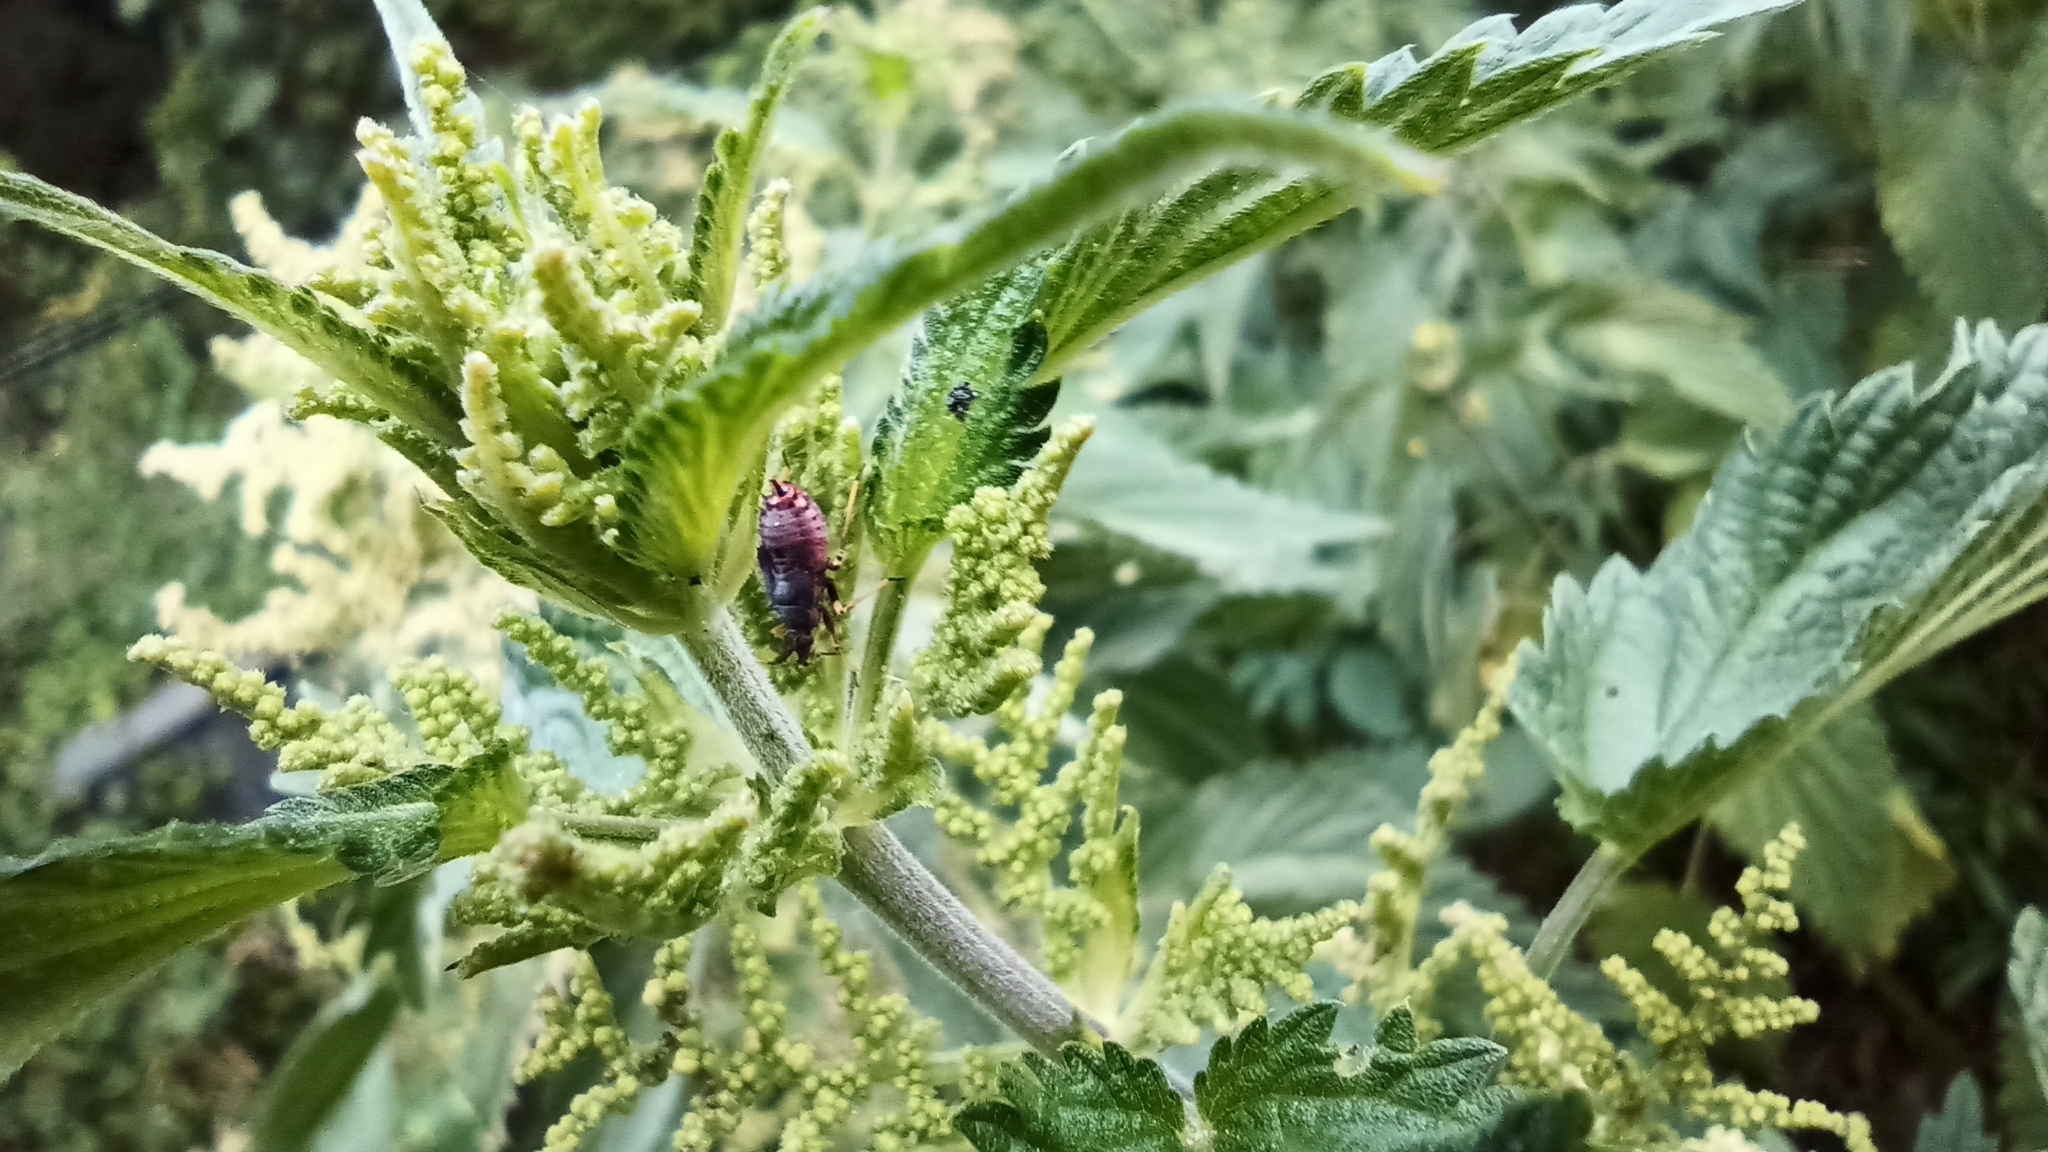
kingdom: Animalia
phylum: Arthropoda
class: Insecta
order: Hemiptera
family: Miridae
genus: Deraeocoris
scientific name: Deraeocoris ruber
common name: Plant bug
